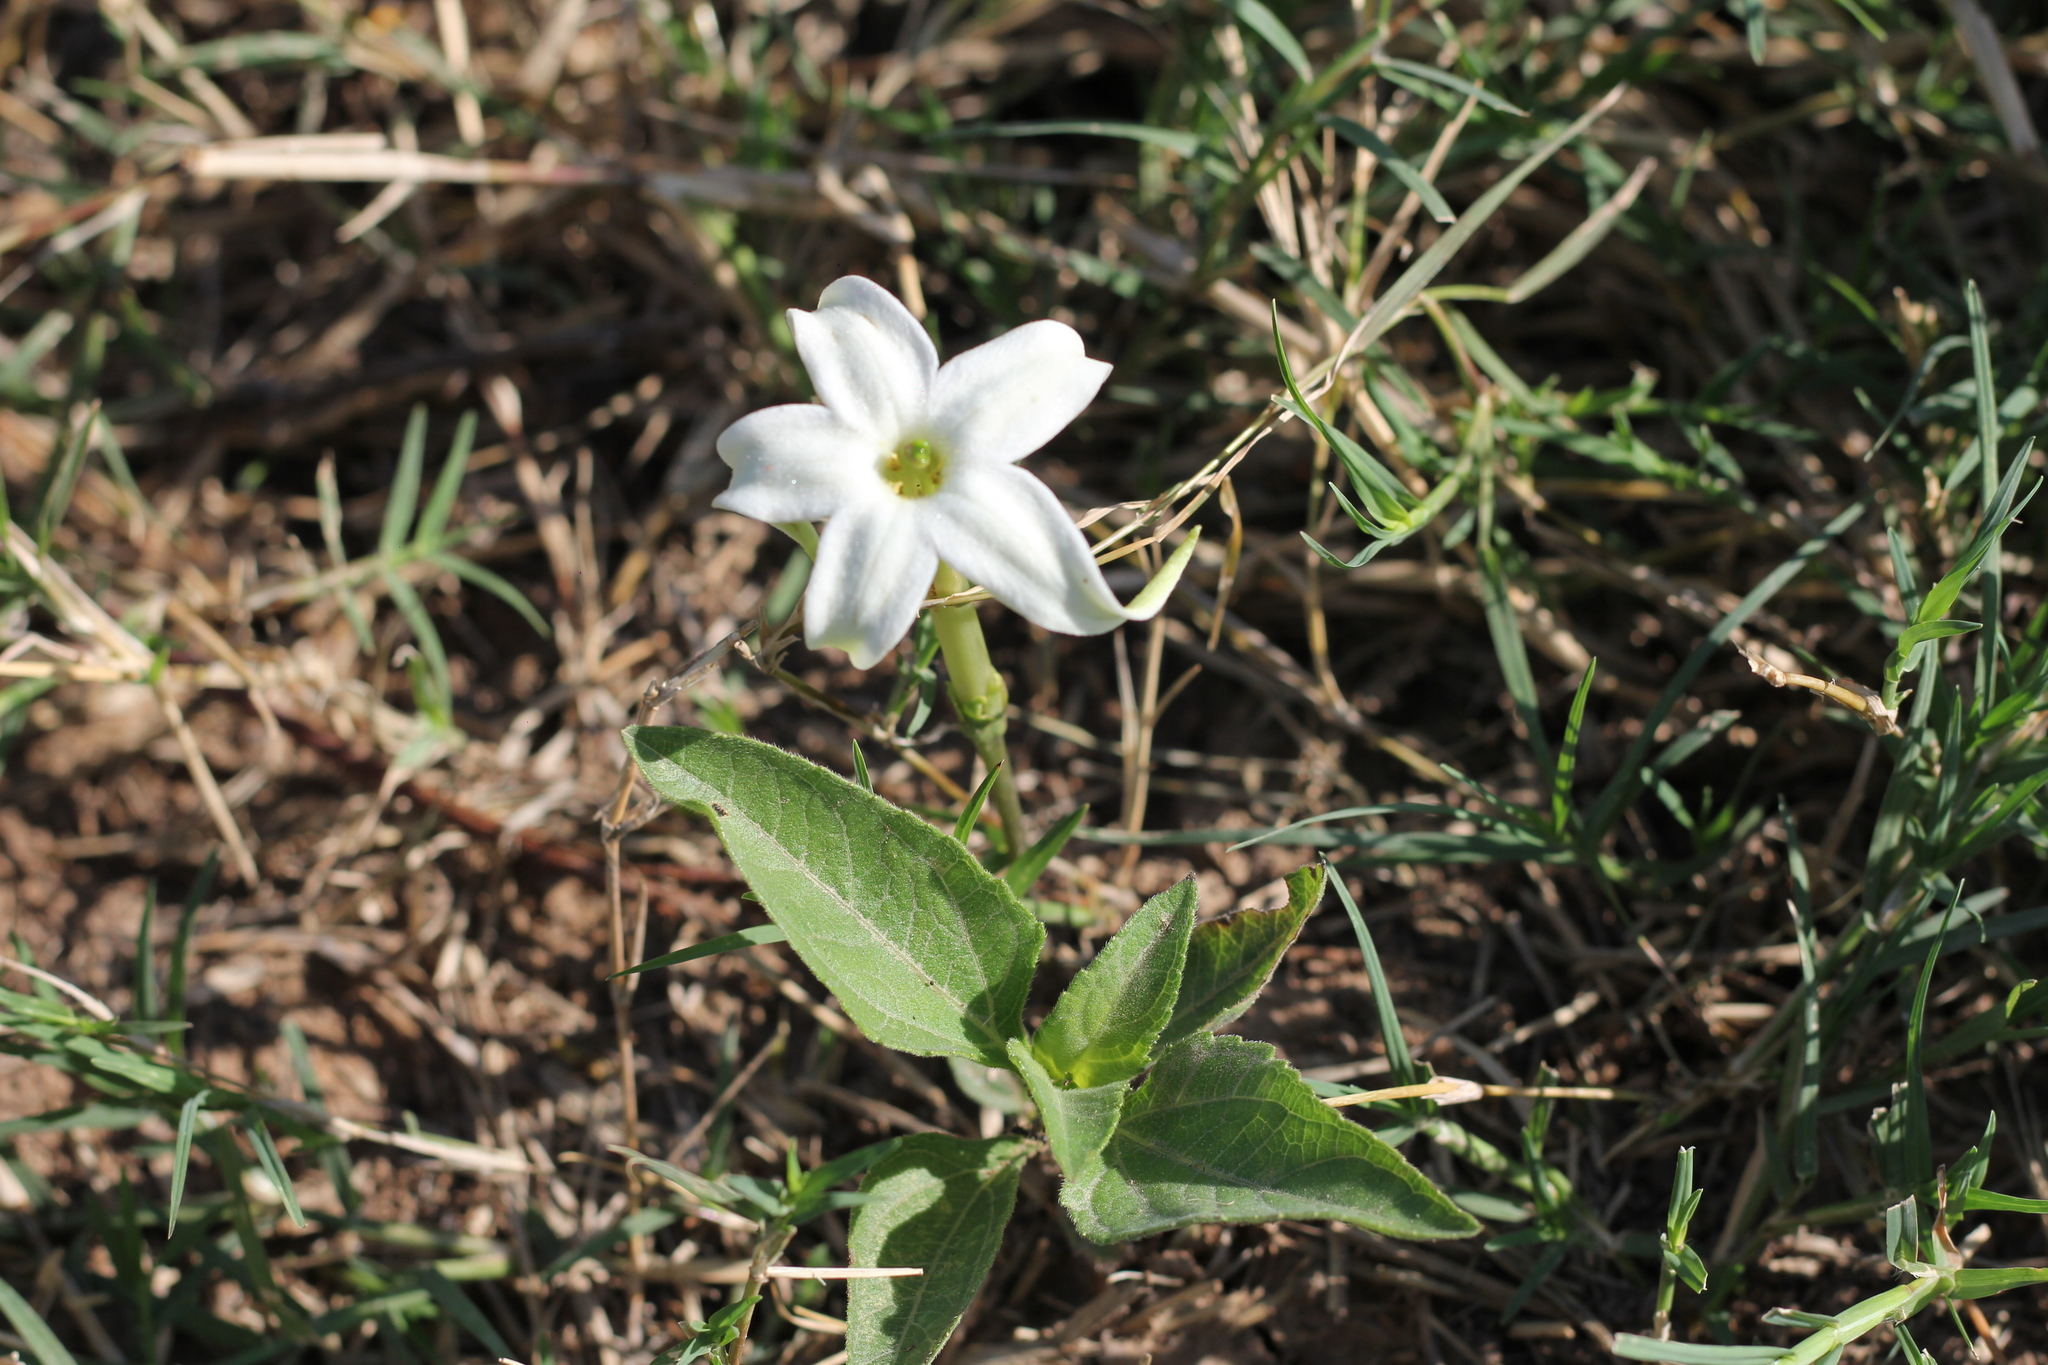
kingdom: Plantae
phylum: Tracheophyta
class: Magnoliopsida
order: Solanales
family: Solanaceae
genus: Jaborosa
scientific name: Jaborosa integrifolia
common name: Springblossom
